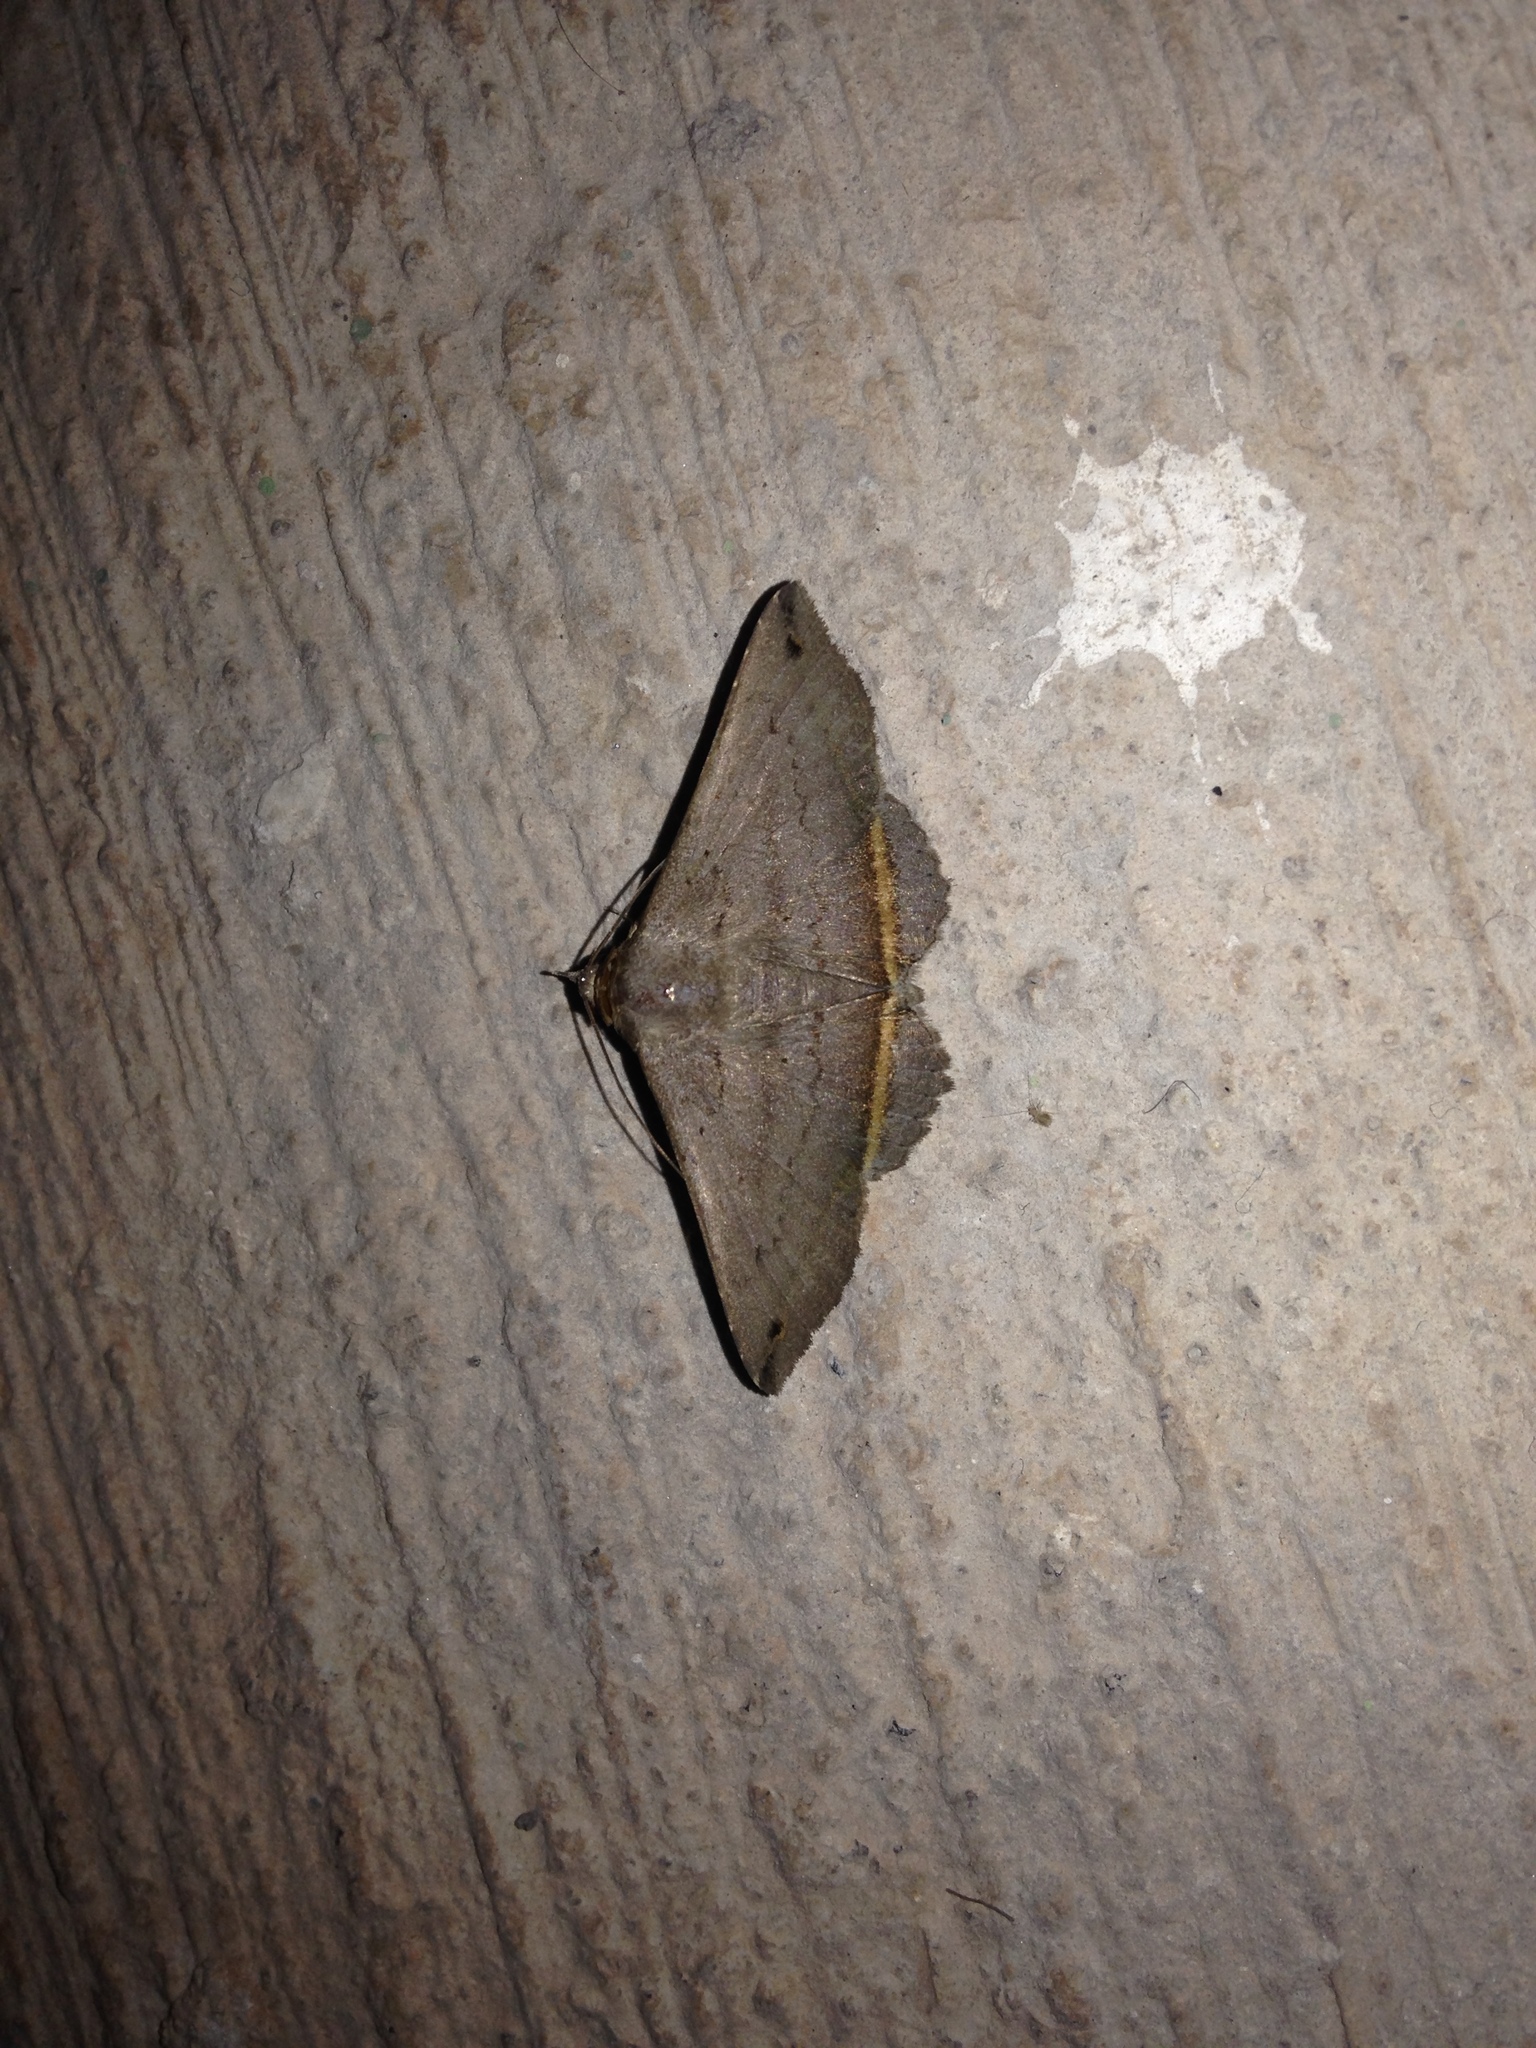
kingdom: Animalia
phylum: Arthropoda
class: Insecta
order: Lepidoptera
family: Erebidae
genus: Lesmone
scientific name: Lesmone formularis
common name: Lesmone moth
